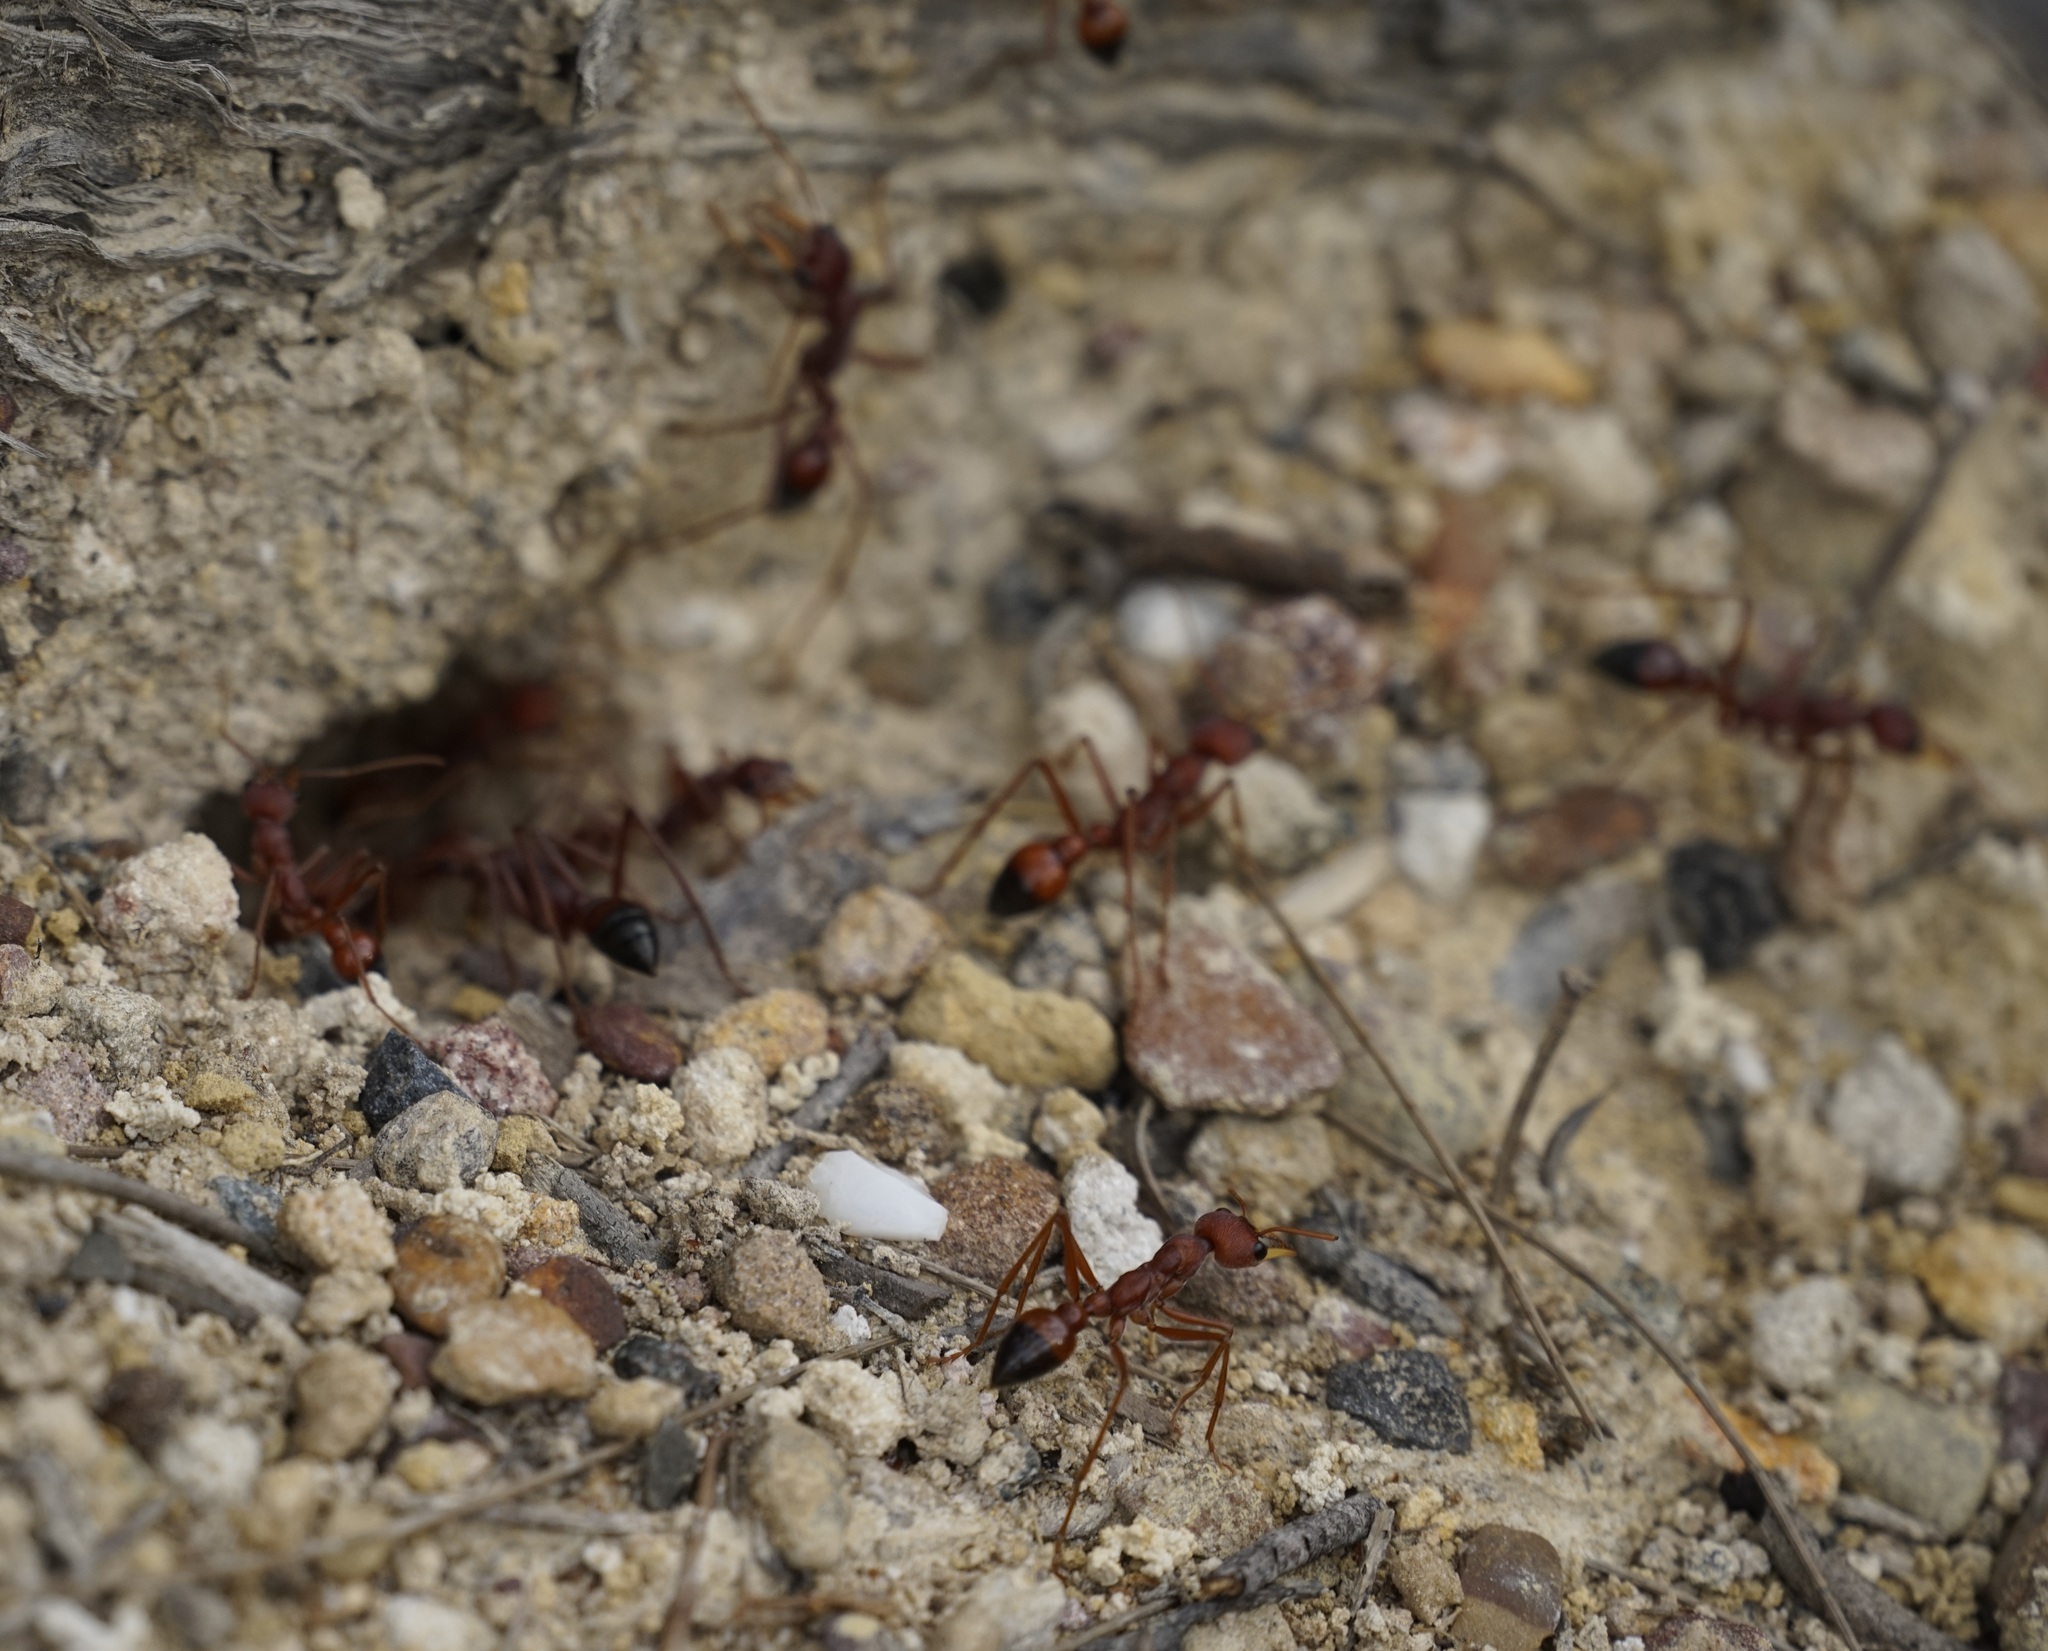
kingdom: Animalia
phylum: Arthropoda
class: Insecta
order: Hymenoptera
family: Formicidae
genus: Myrmecia
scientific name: Myrmecia gulosa
